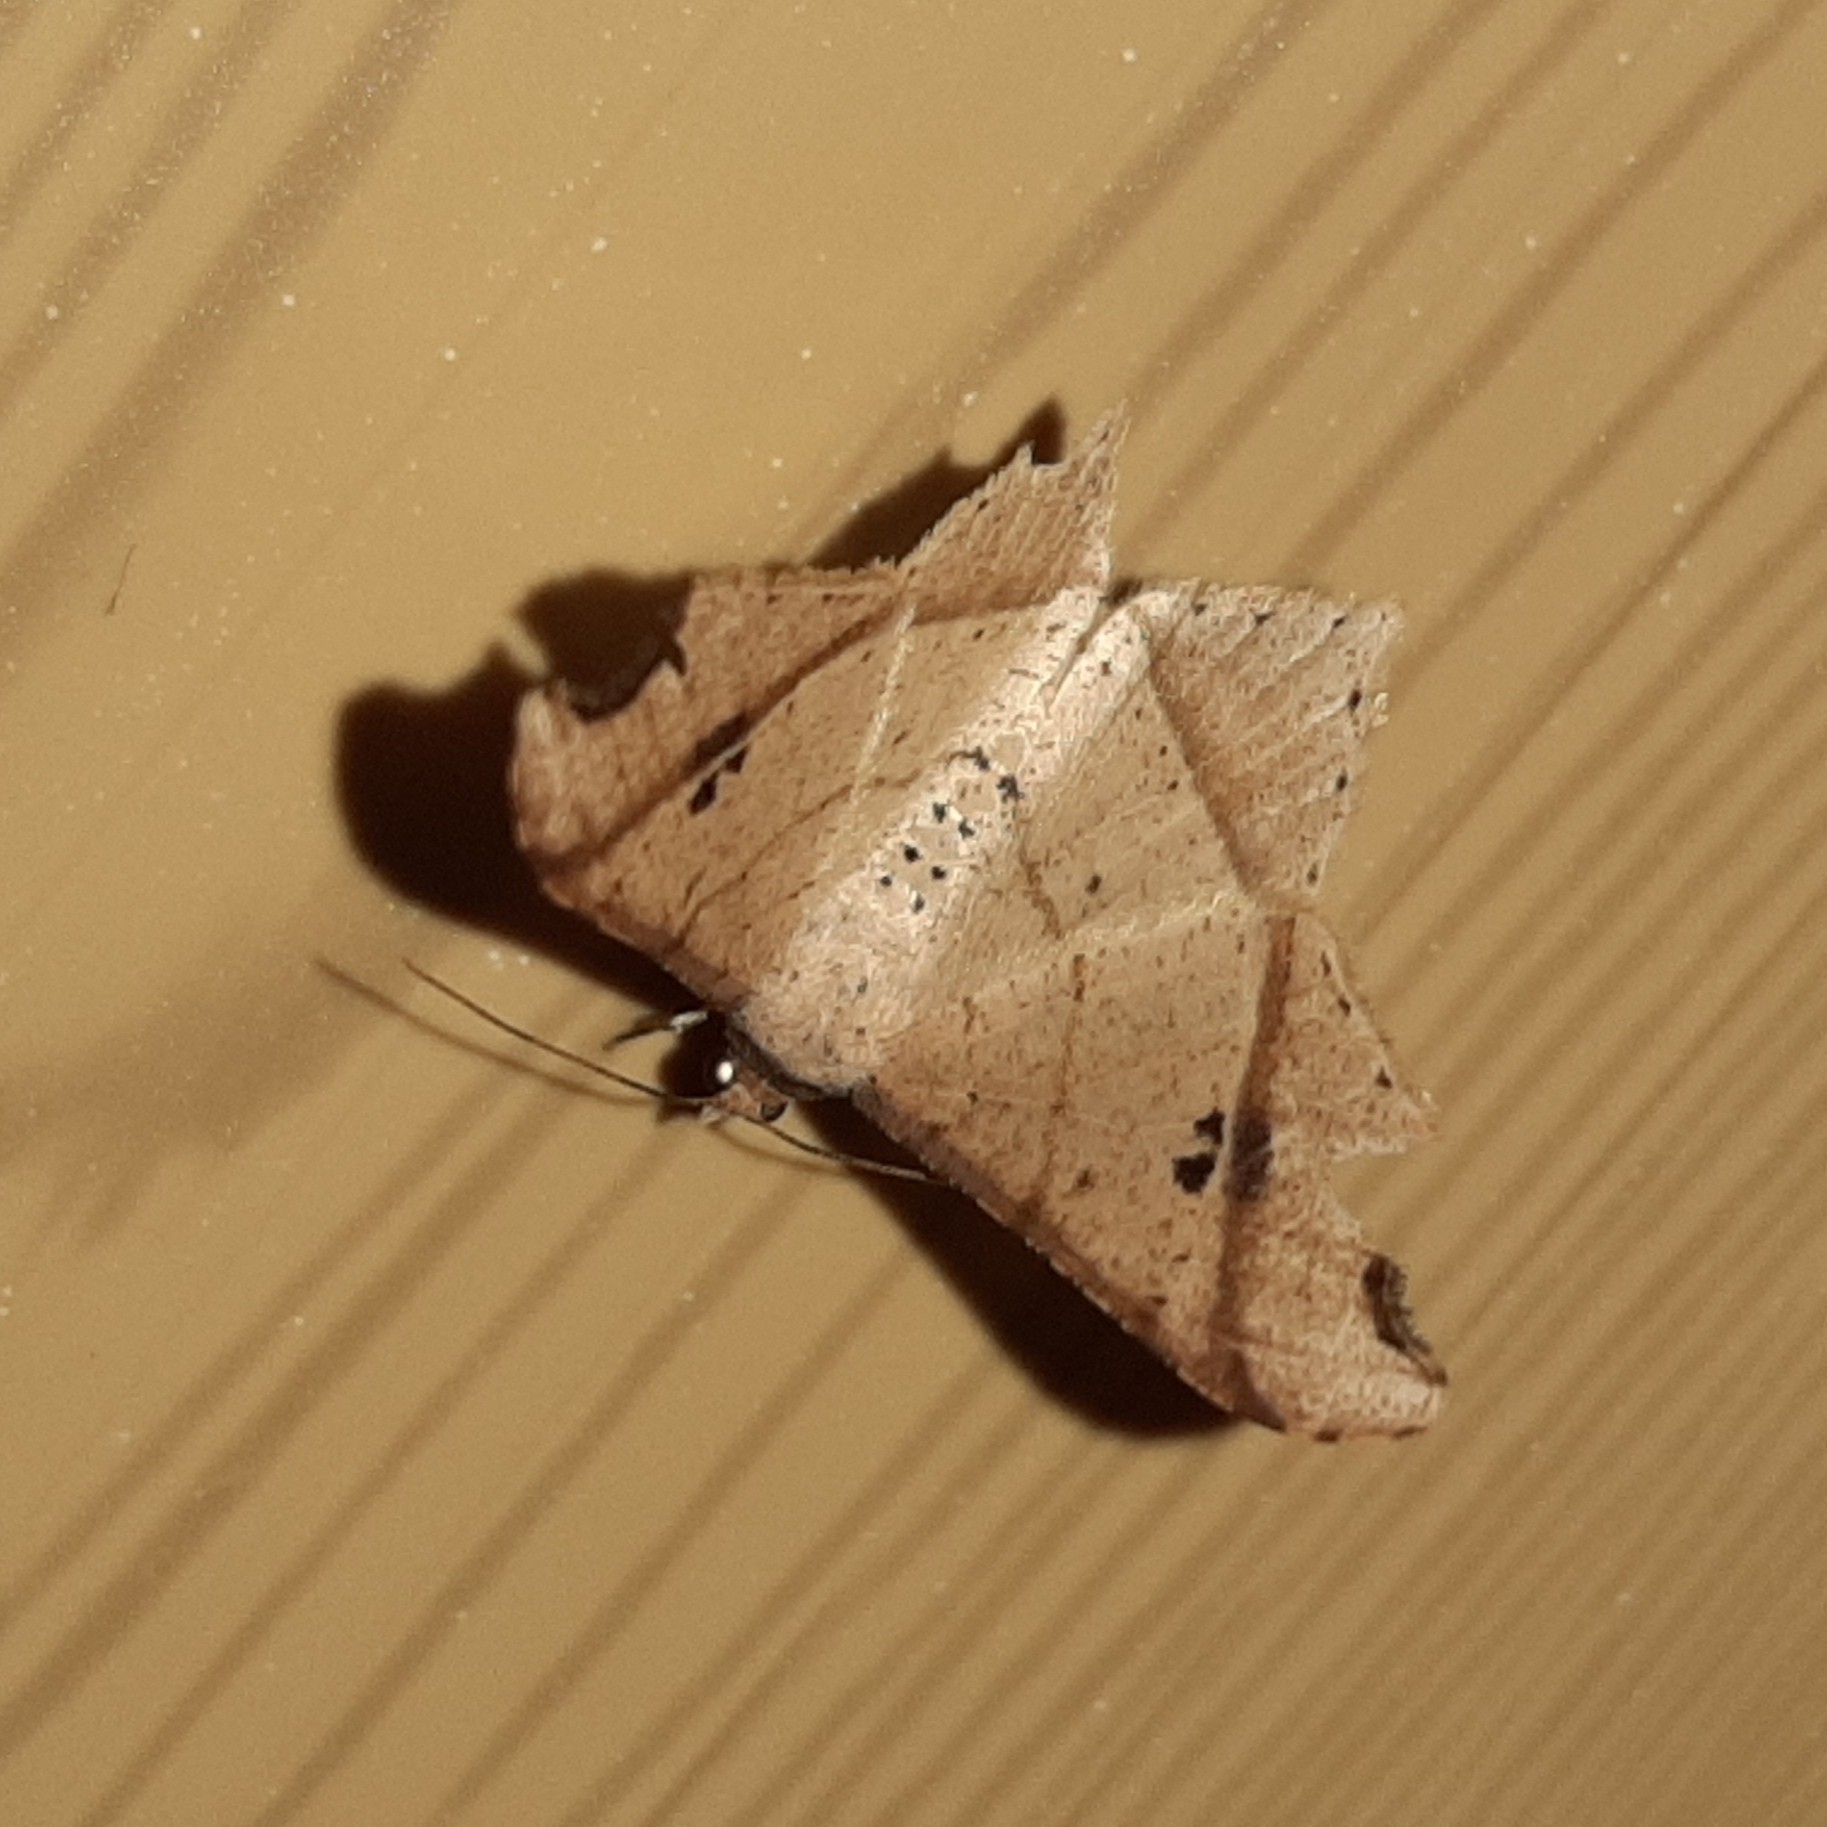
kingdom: Animalia
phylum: Arthropoda
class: Insecta
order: Lepidoptera
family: Geometridae
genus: Macaria
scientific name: Macaria triplicaria
